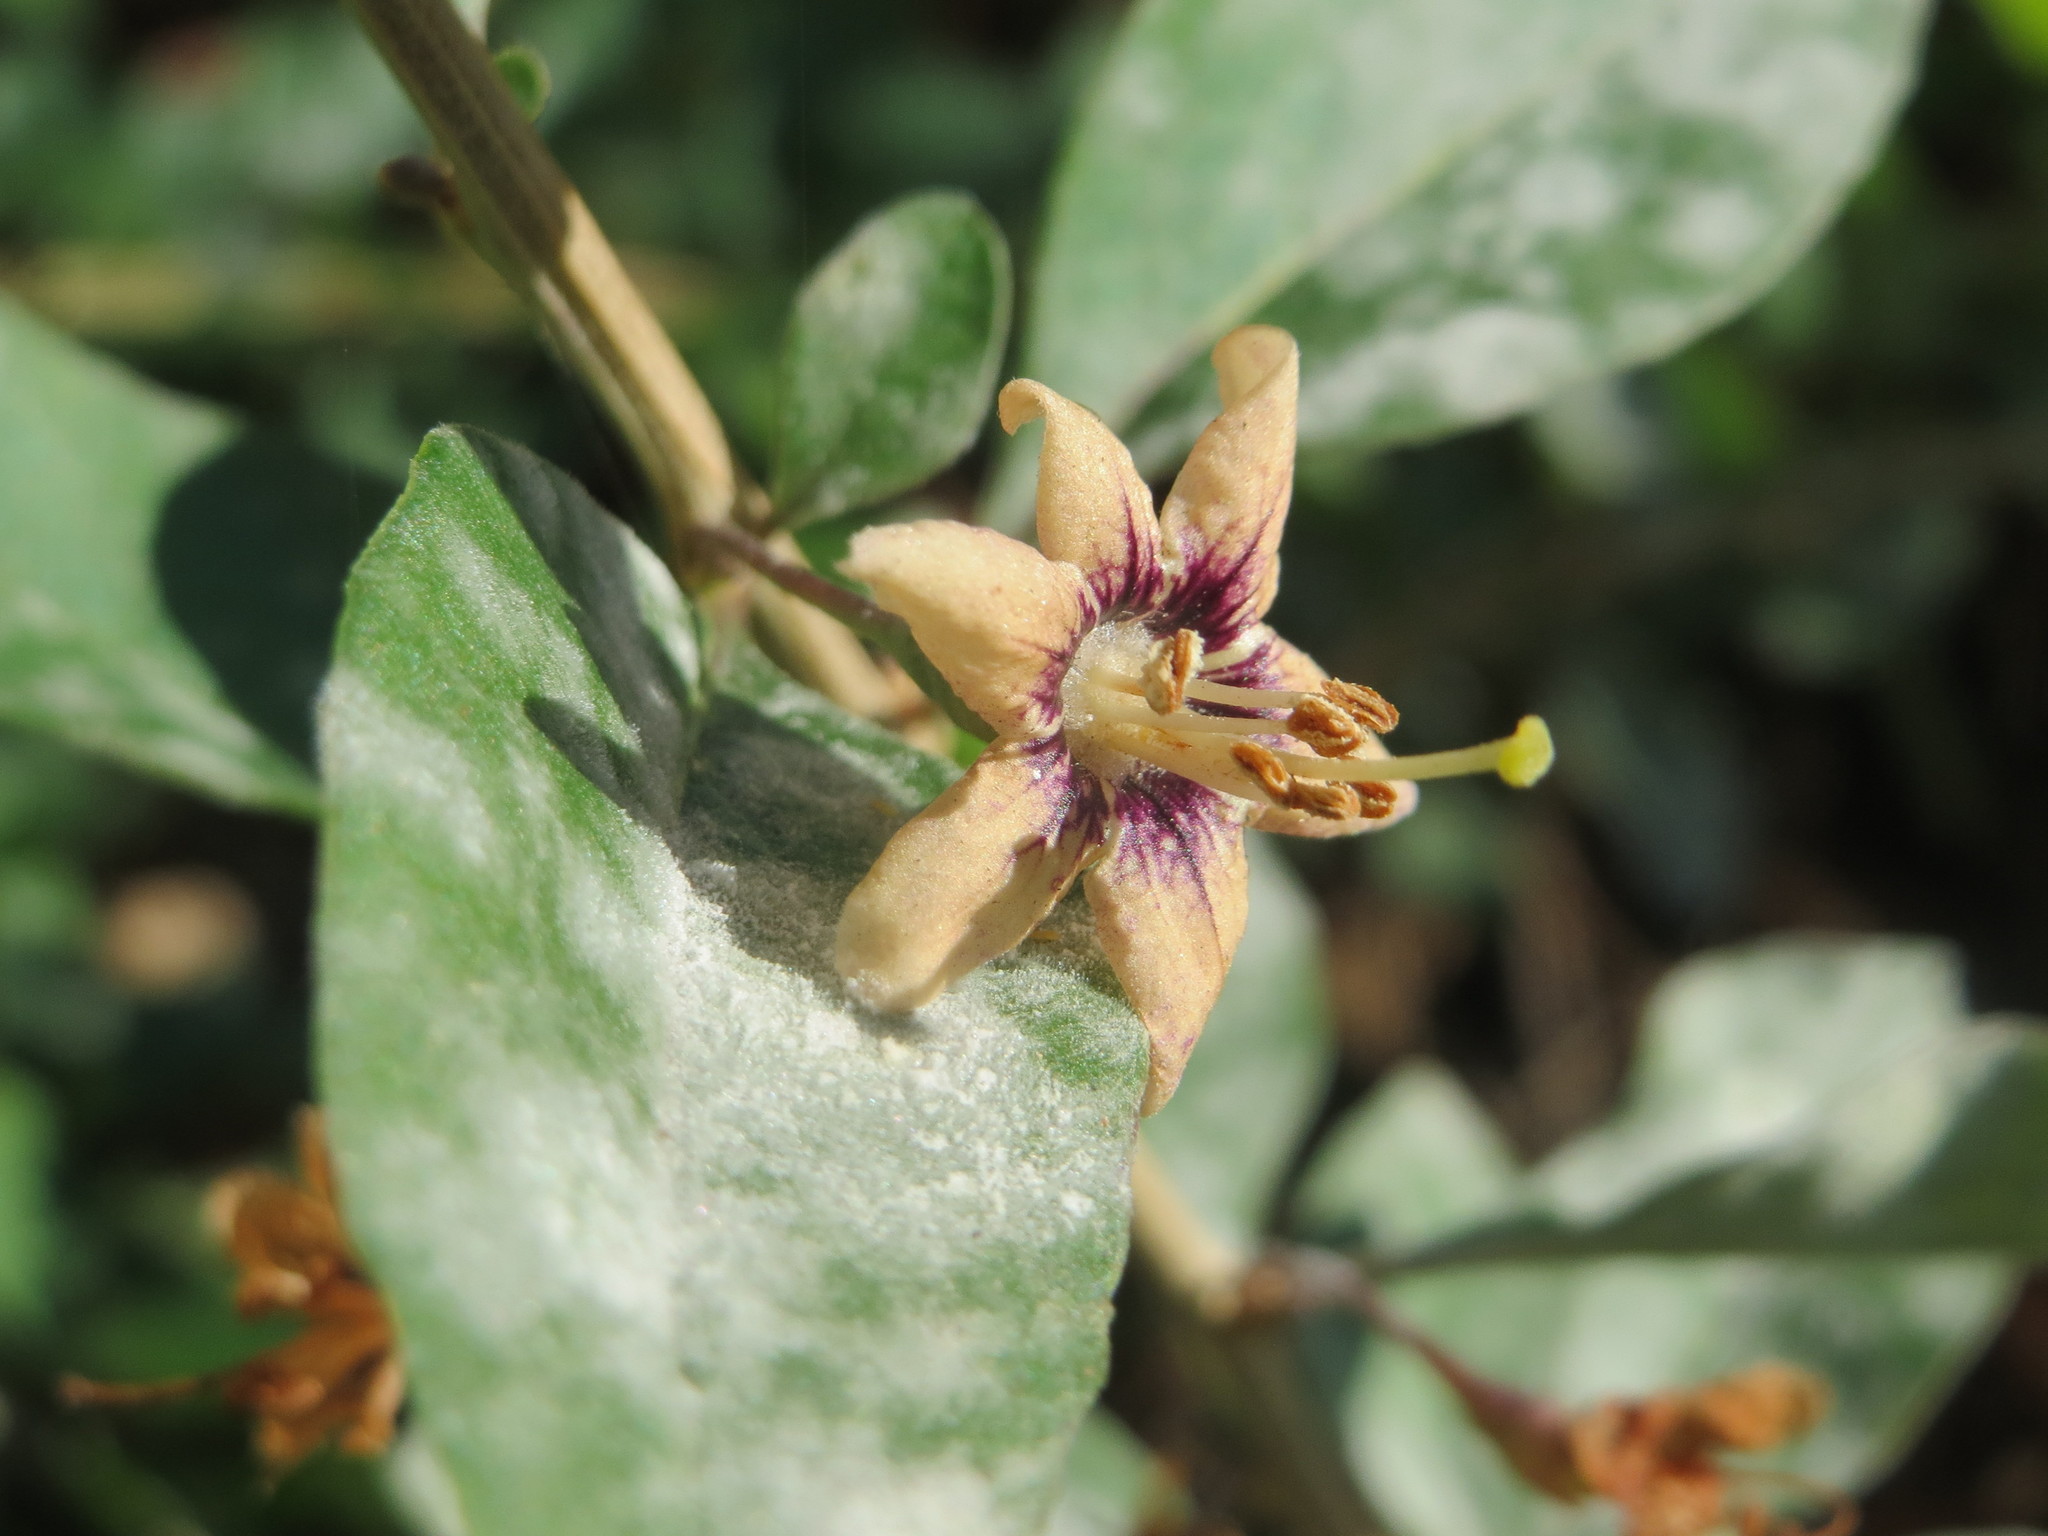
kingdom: Plantae
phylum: Tracheophyta
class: Magnoliopsida
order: Solanales
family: Solanaceae
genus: Lycium
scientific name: Lycium barbarum
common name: Duke of argyll's teaplant
